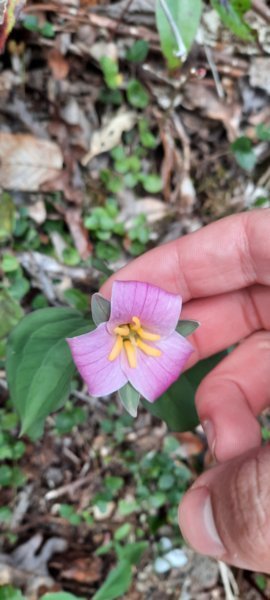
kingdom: Plantae
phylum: Tracheophyta
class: Liliopsida
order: Liliales
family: Melanthiaceae
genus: Trillium
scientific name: Trillium catesbaei
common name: Bashful trillium
